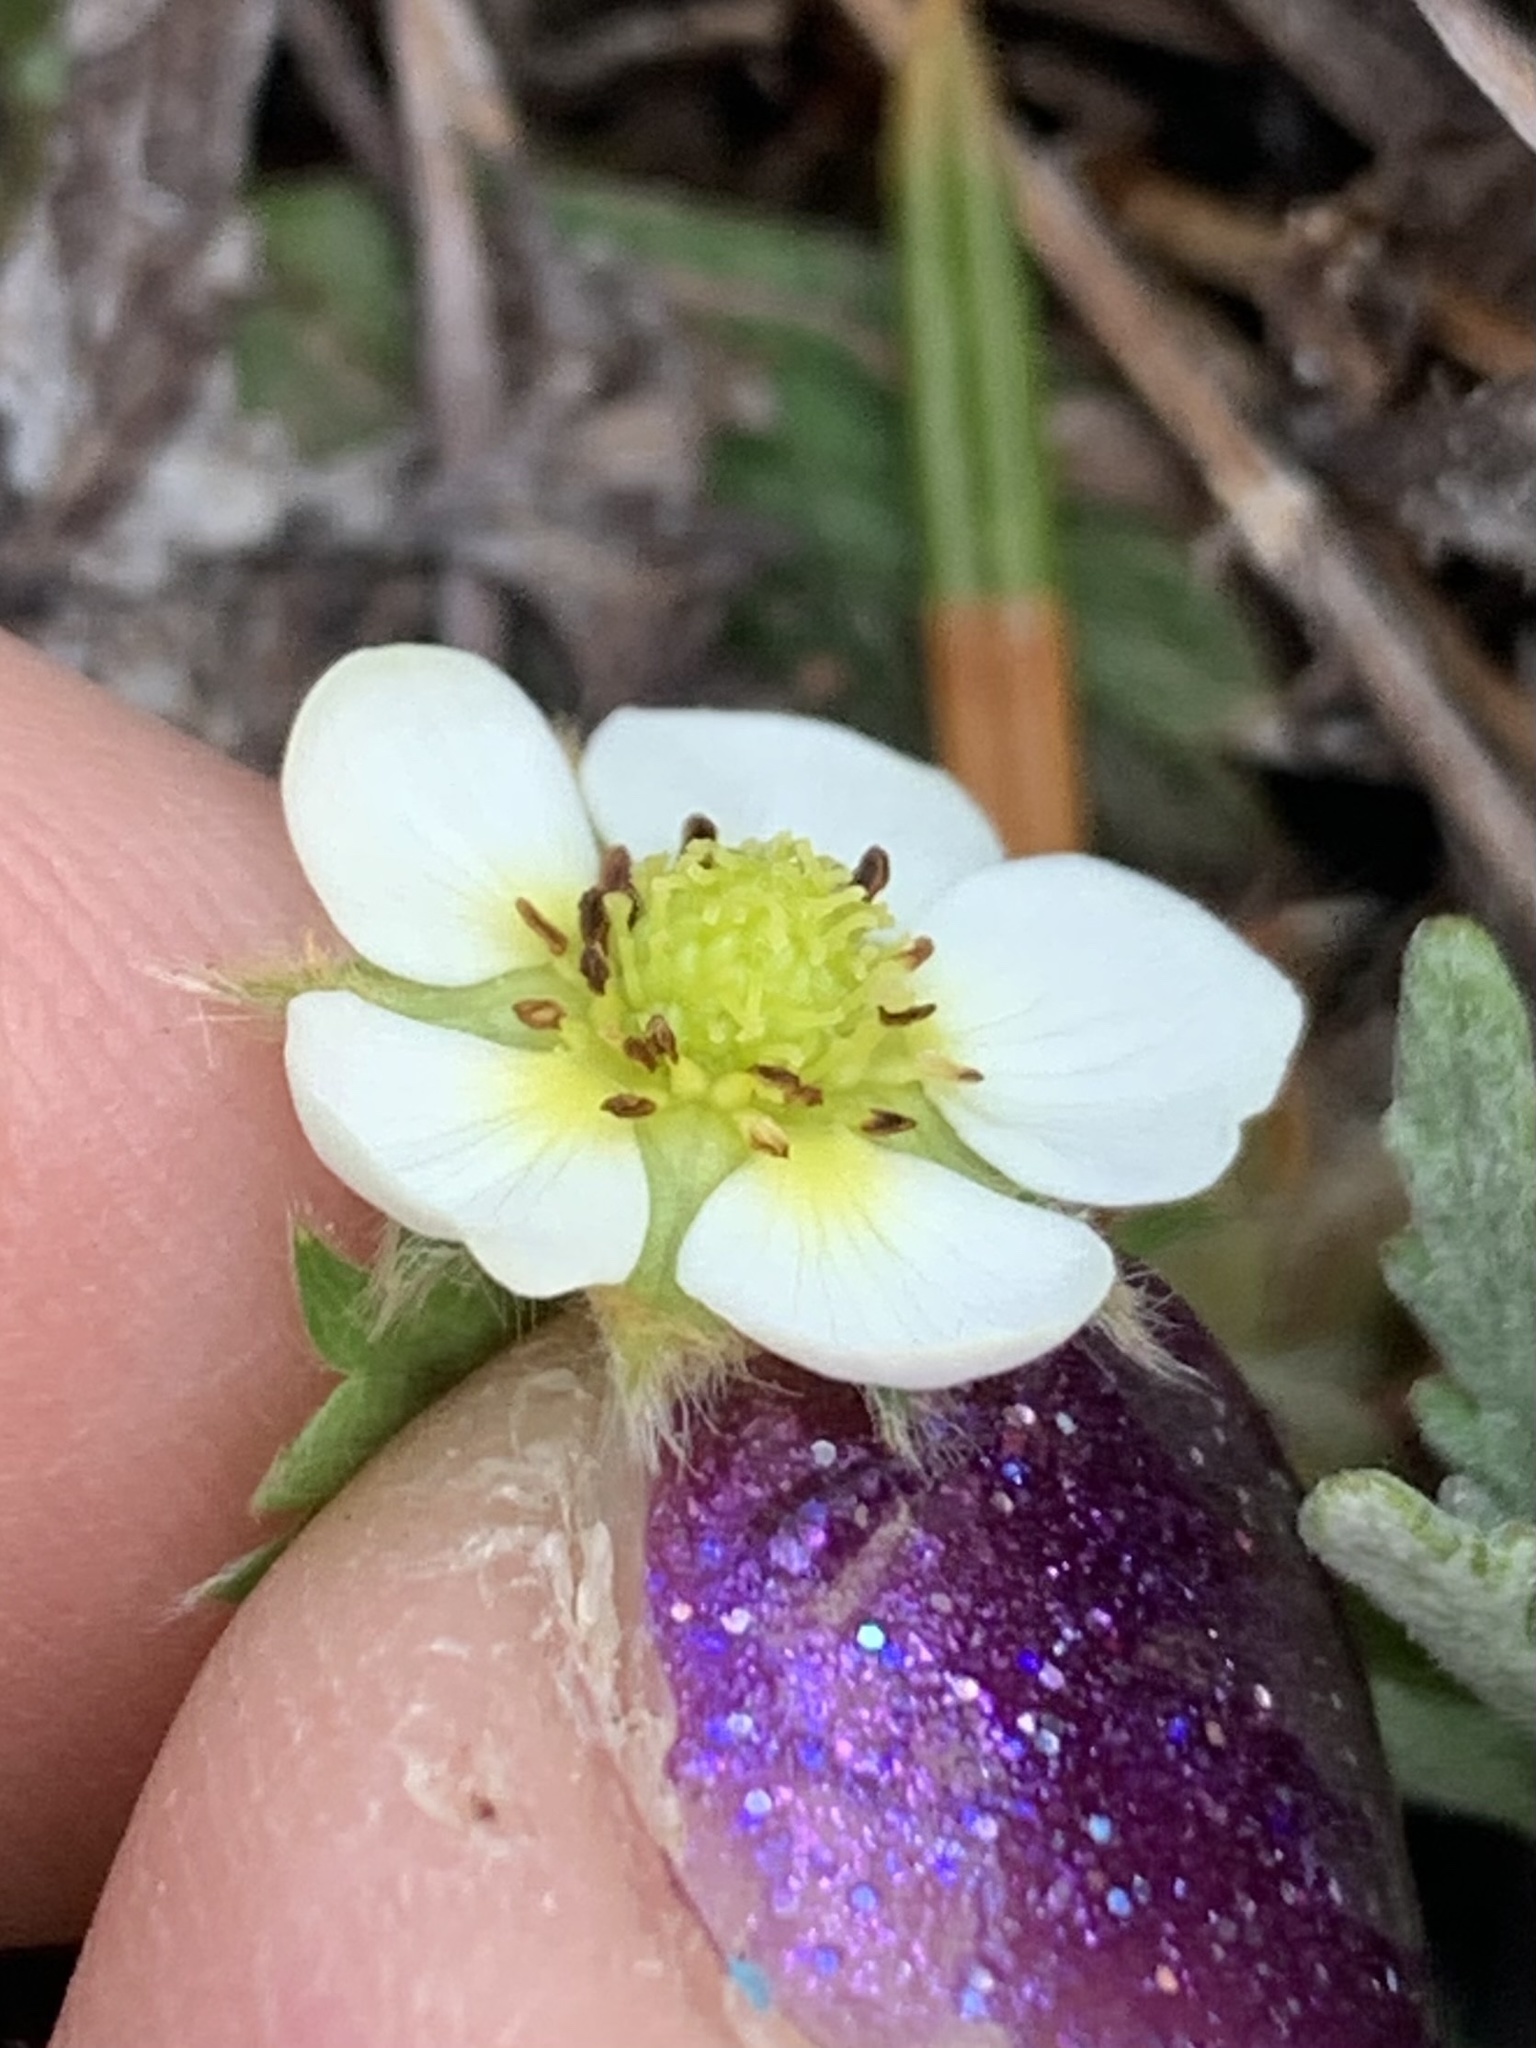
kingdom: Plantae
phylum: Tracheophyta
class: Magnoliopsida
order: Rosales
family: Rosaceae
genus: Fragaria
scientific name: Fragaria cascadensis
